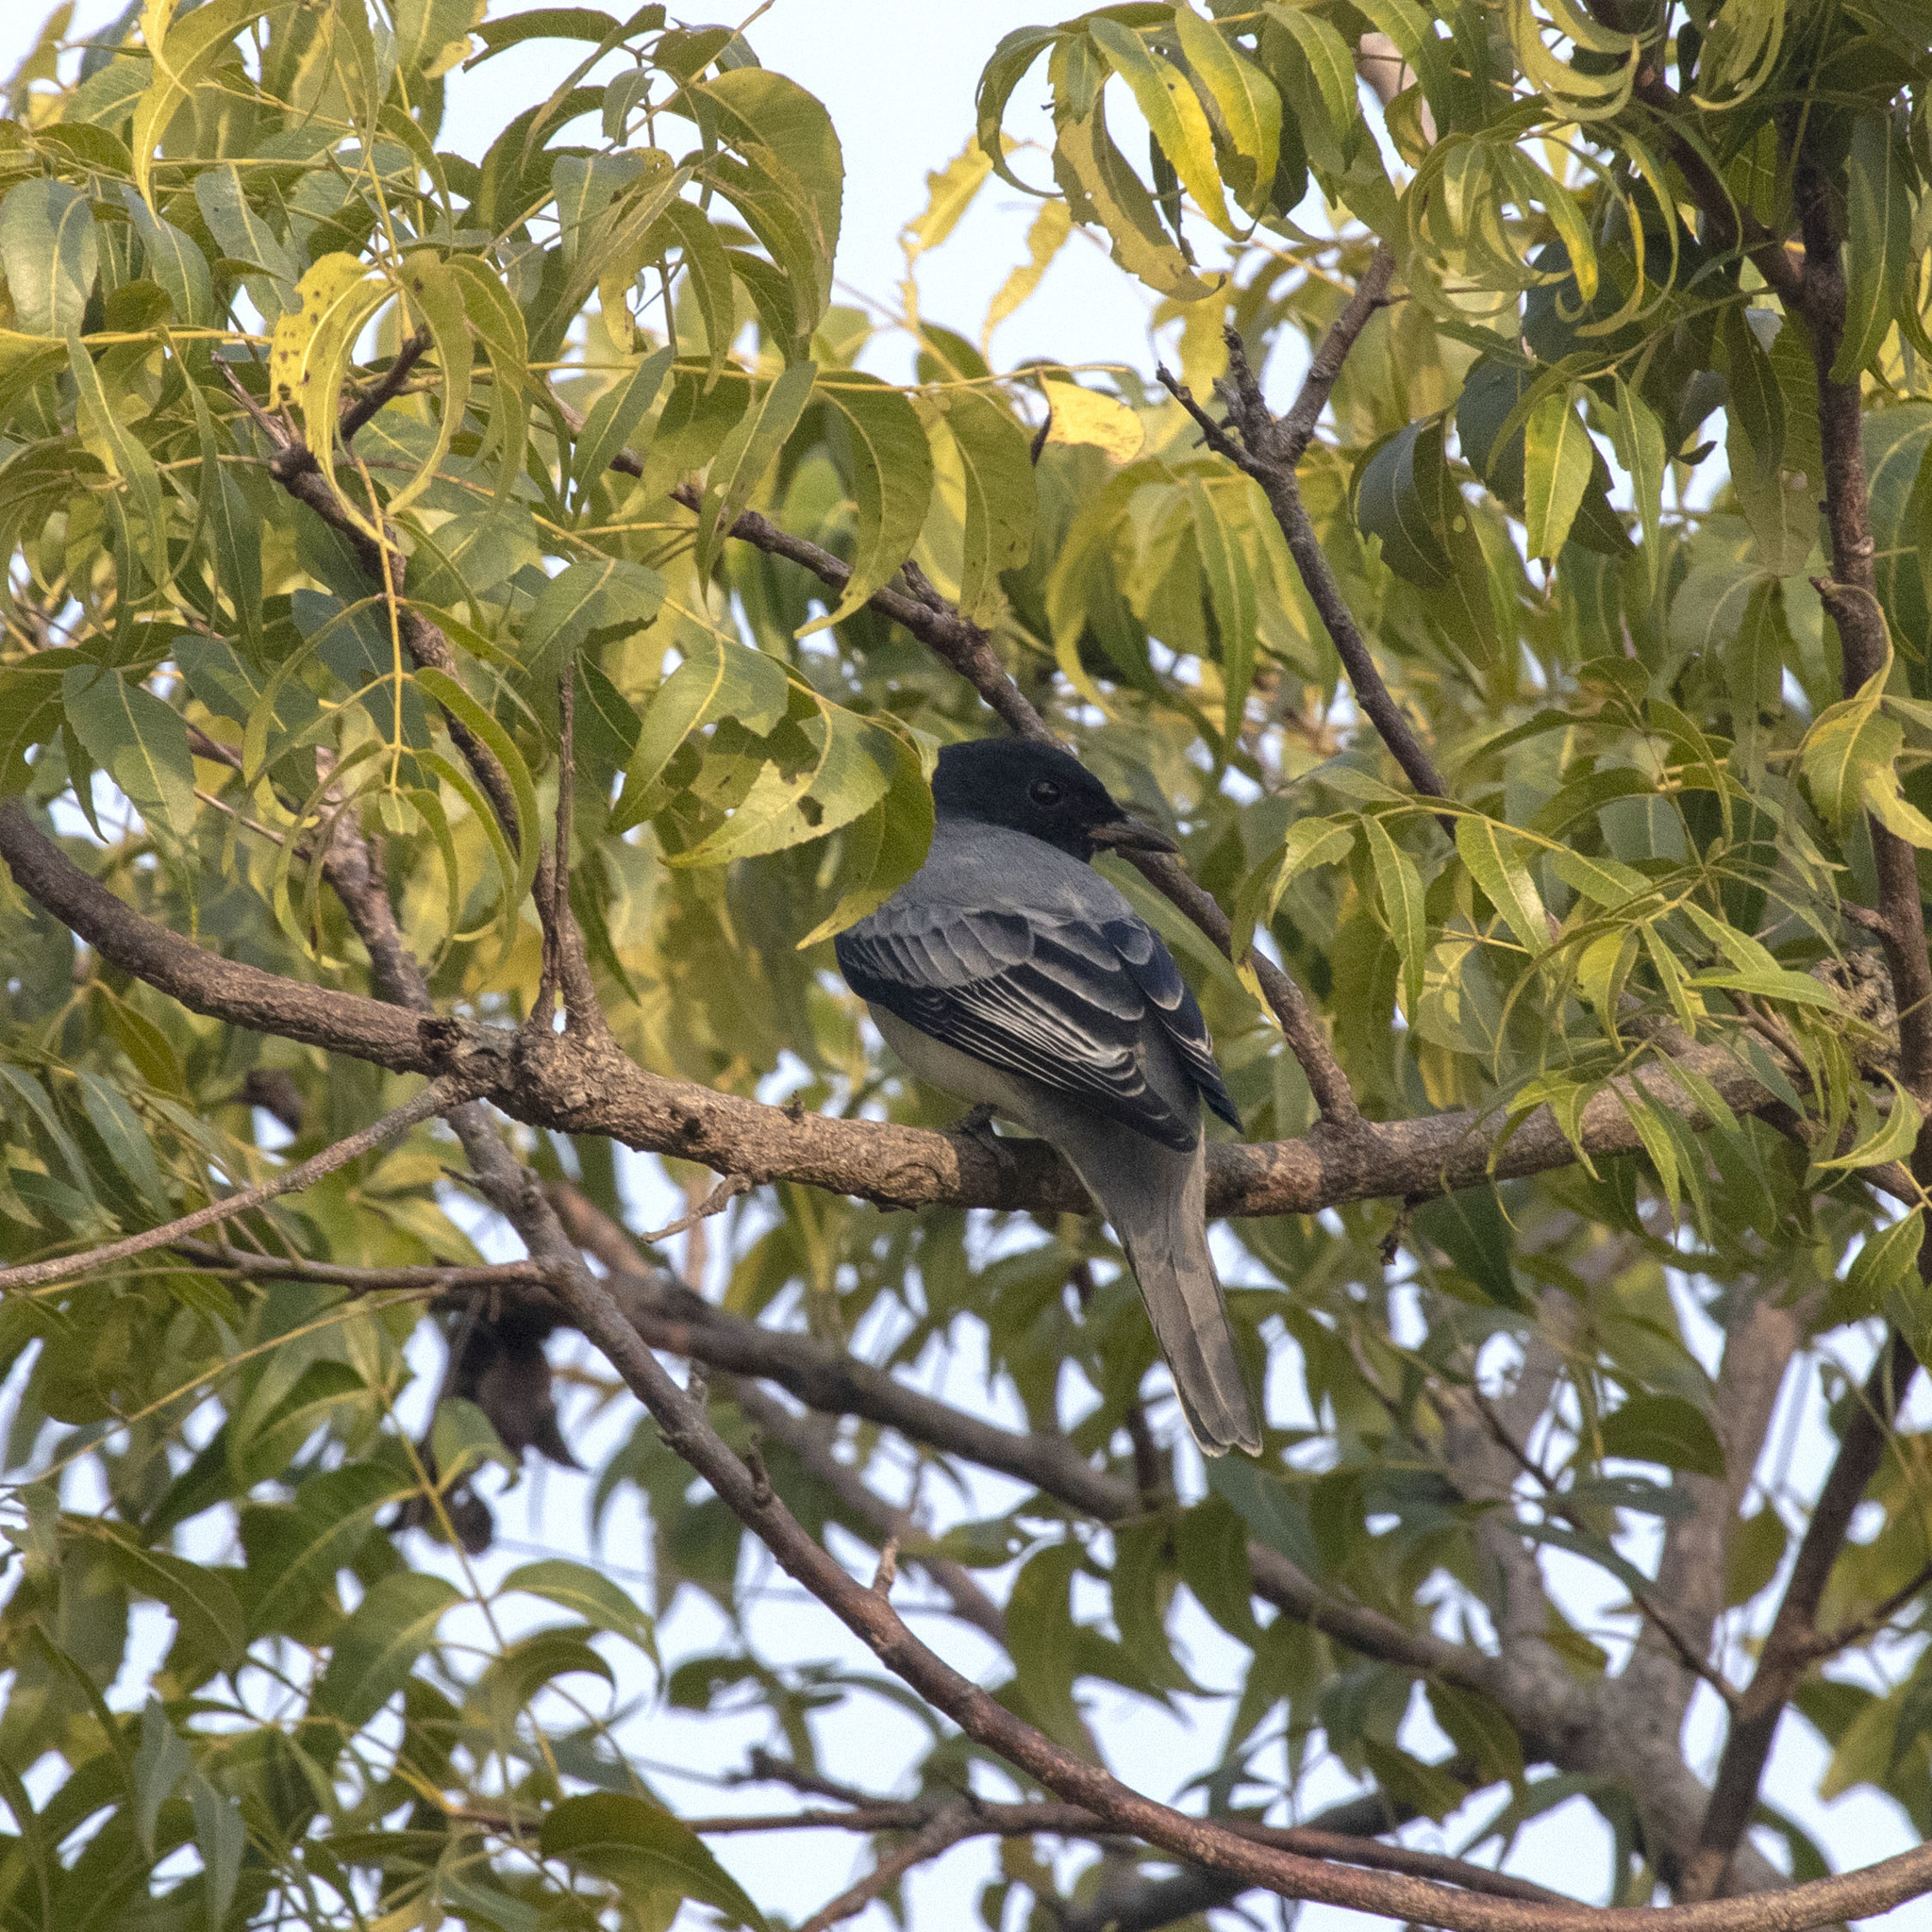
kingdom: Animalia
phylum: Chordata
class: Aves
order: Passeriformes
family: Campephagidae
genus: Coracina
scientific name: Coracina melanoptera
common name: Black-headed cuckooshrike
